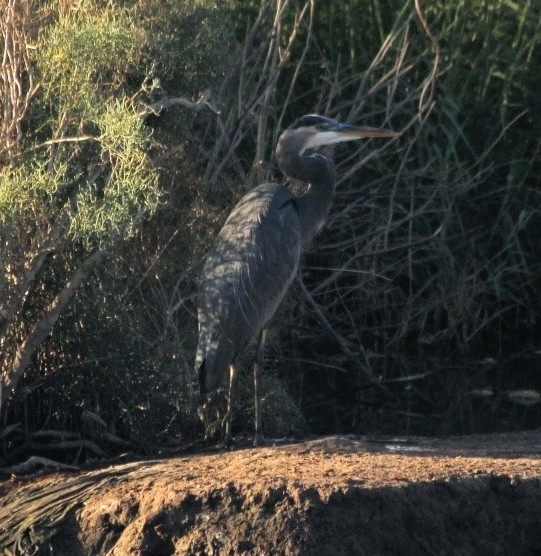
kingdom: Animalia
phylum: Chordata
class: Aves
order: Pelecaniformes
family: Ardeidae
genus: Ardea
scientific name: Ardea herodias
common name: Great blue heron
